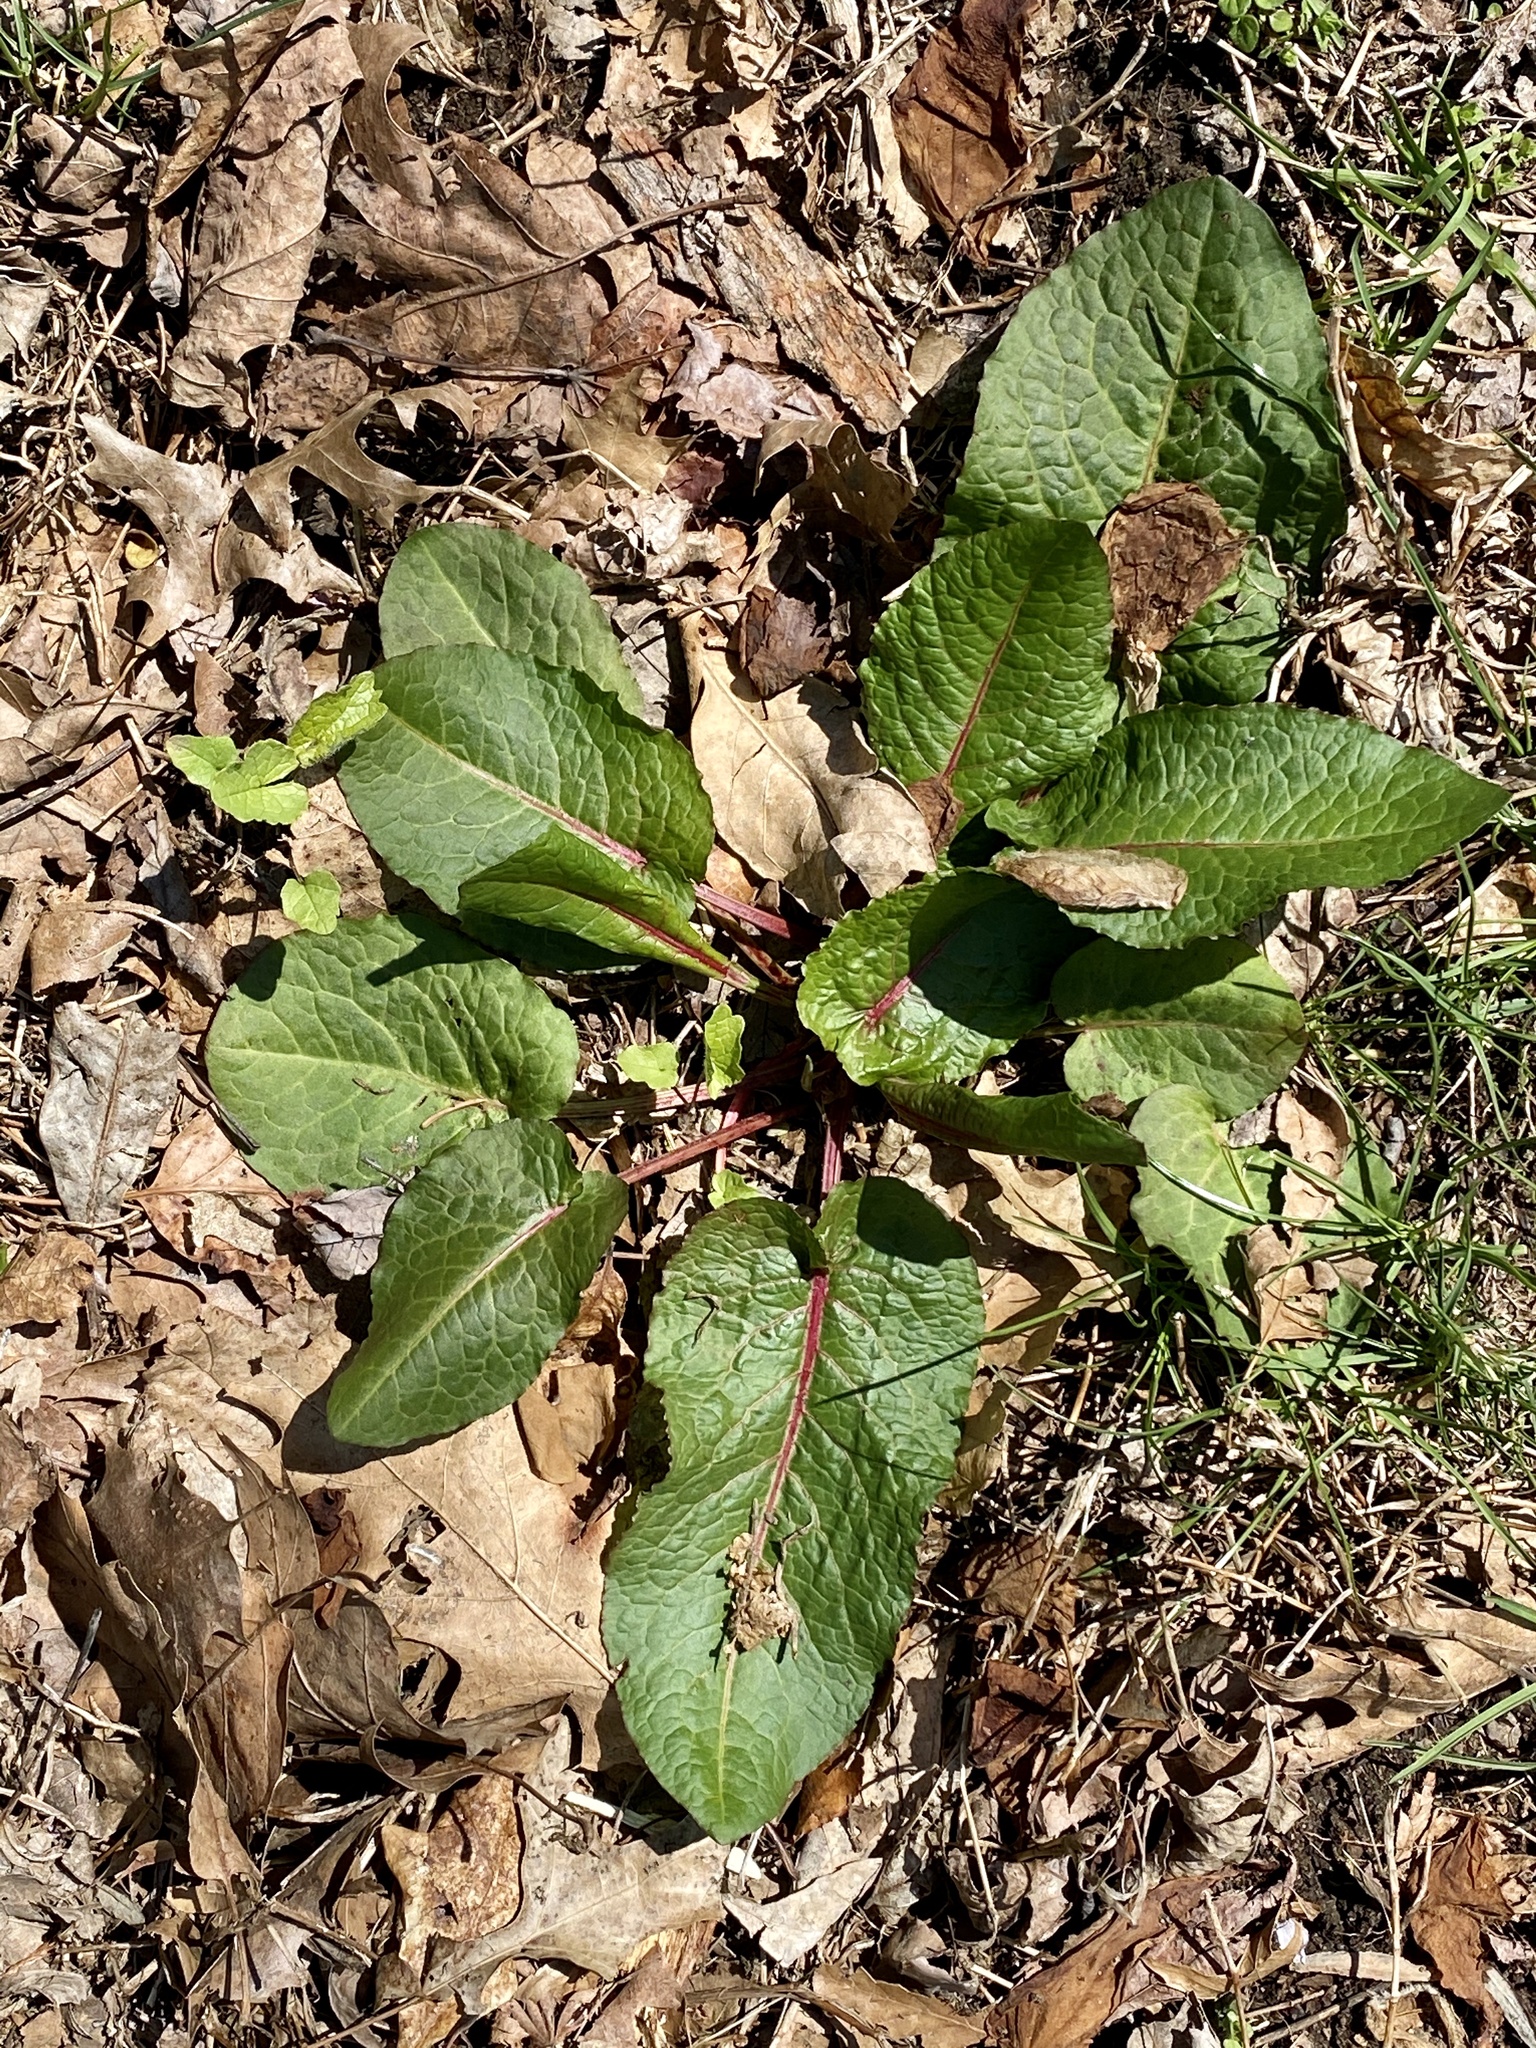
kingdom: Plantae
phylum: Tracheophyta
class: Magnoliopsida
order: Caryophyllales
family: Polygonaceae
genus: Rumex
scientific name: Rumex obtusifolius
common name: Bitter dock
